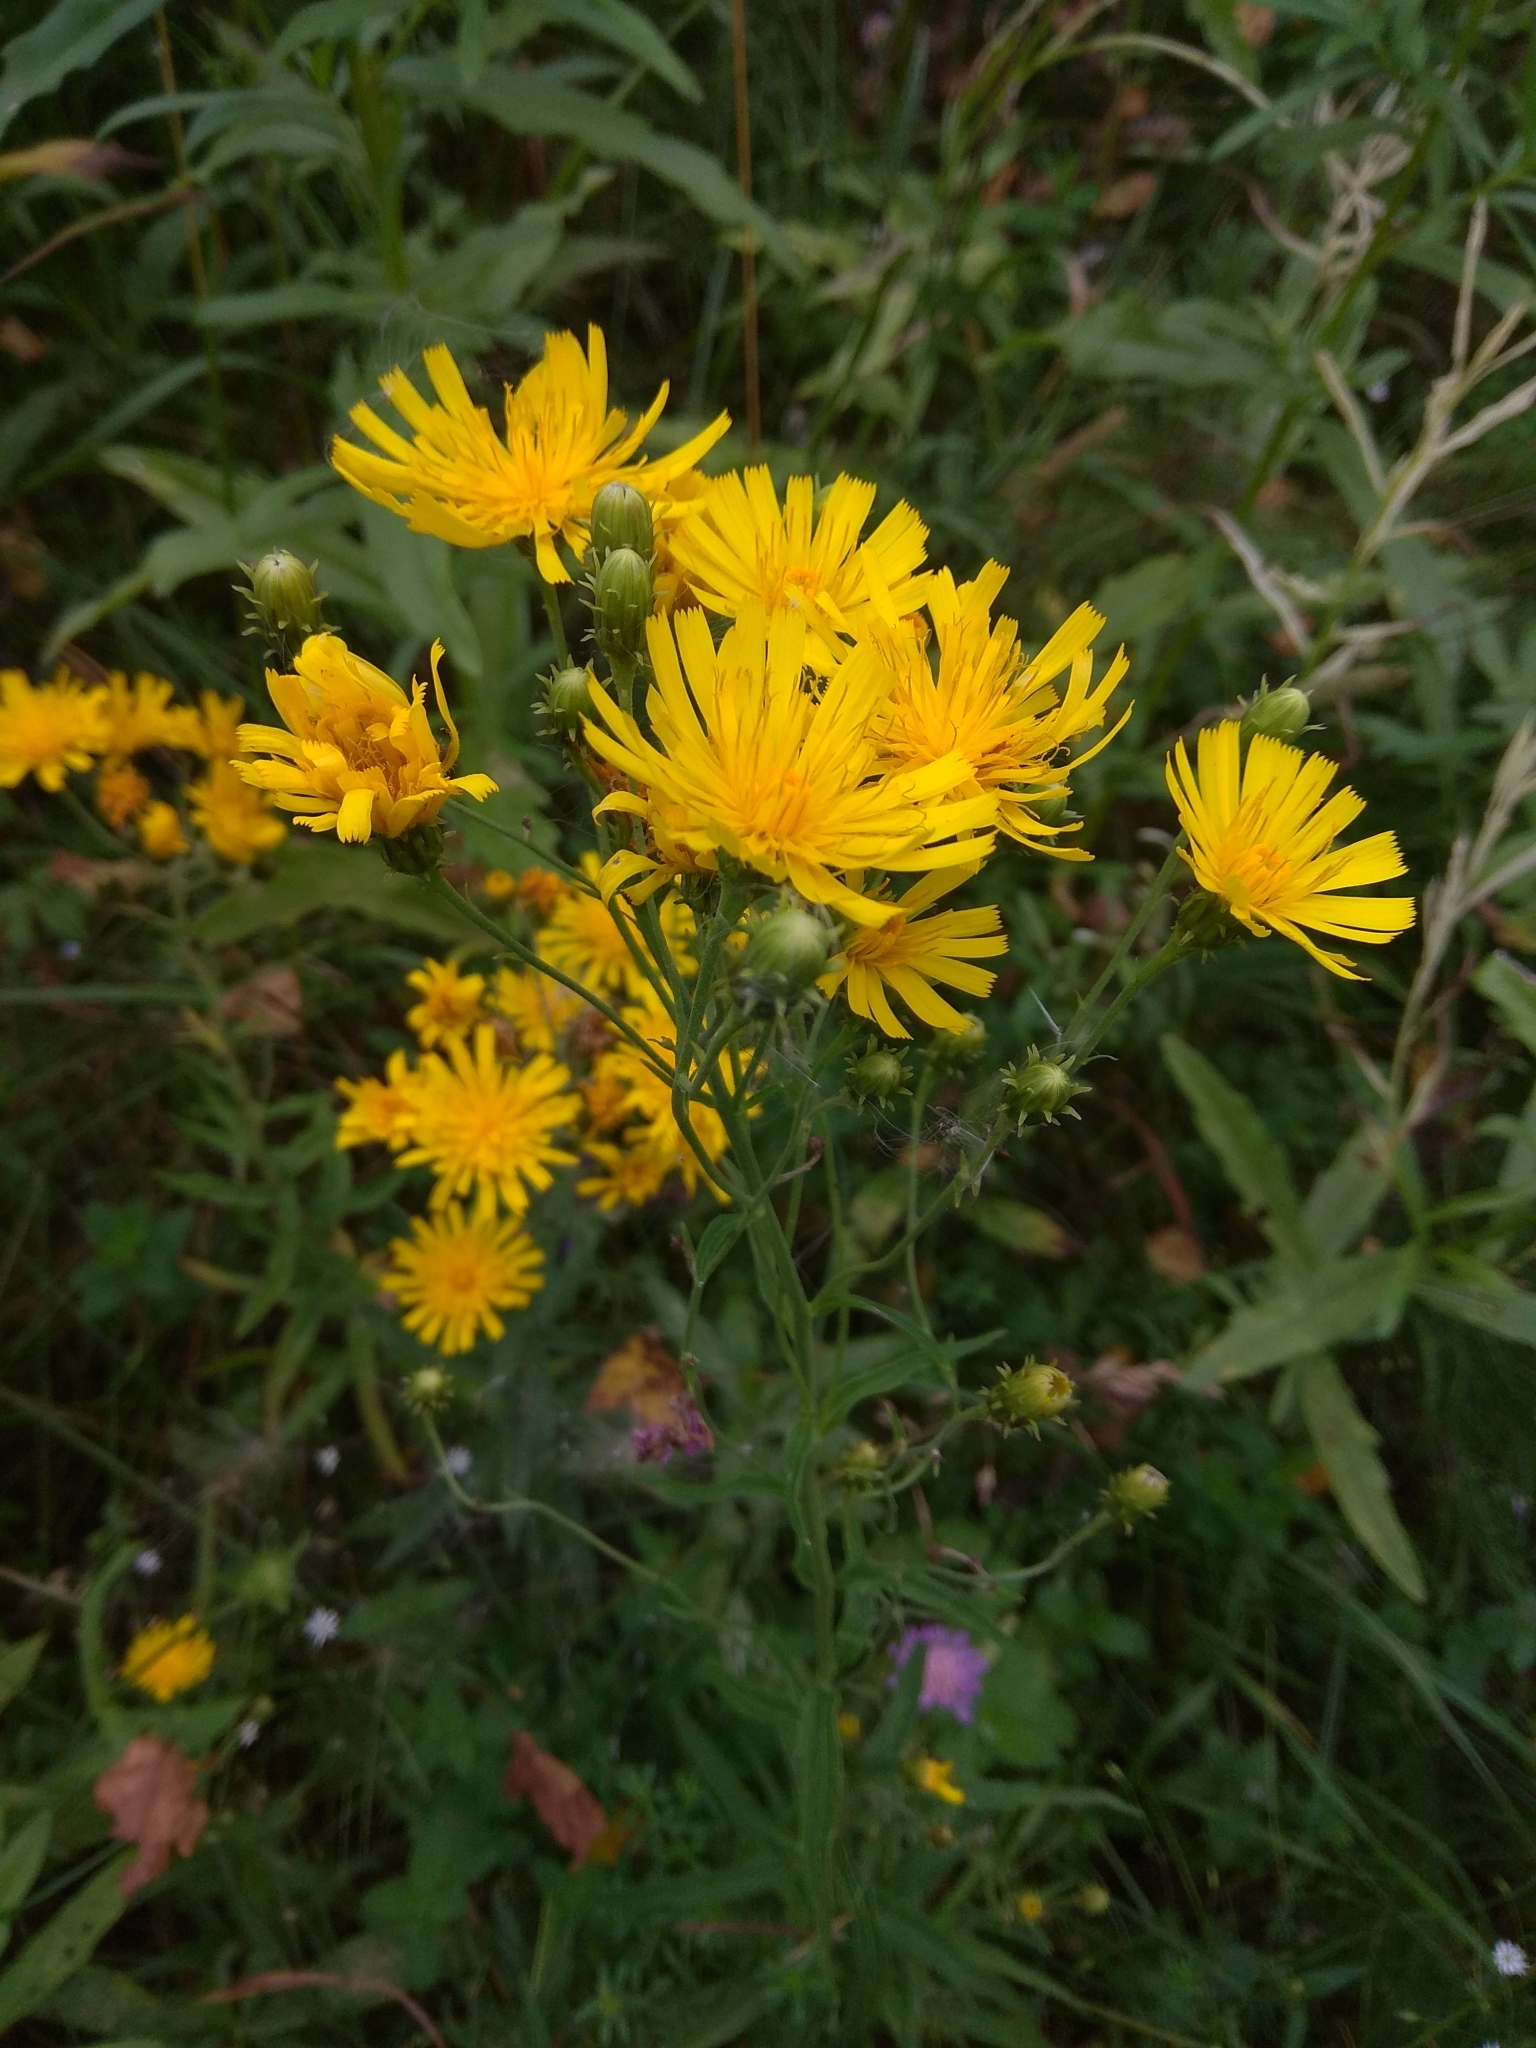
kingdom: Plantae
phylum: Tracheophyta
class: Magnoliopsida
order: Asterales
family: Asteraceae
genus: Hieracium
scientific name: Hieracium umbellatum
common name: Northern hawkweed
